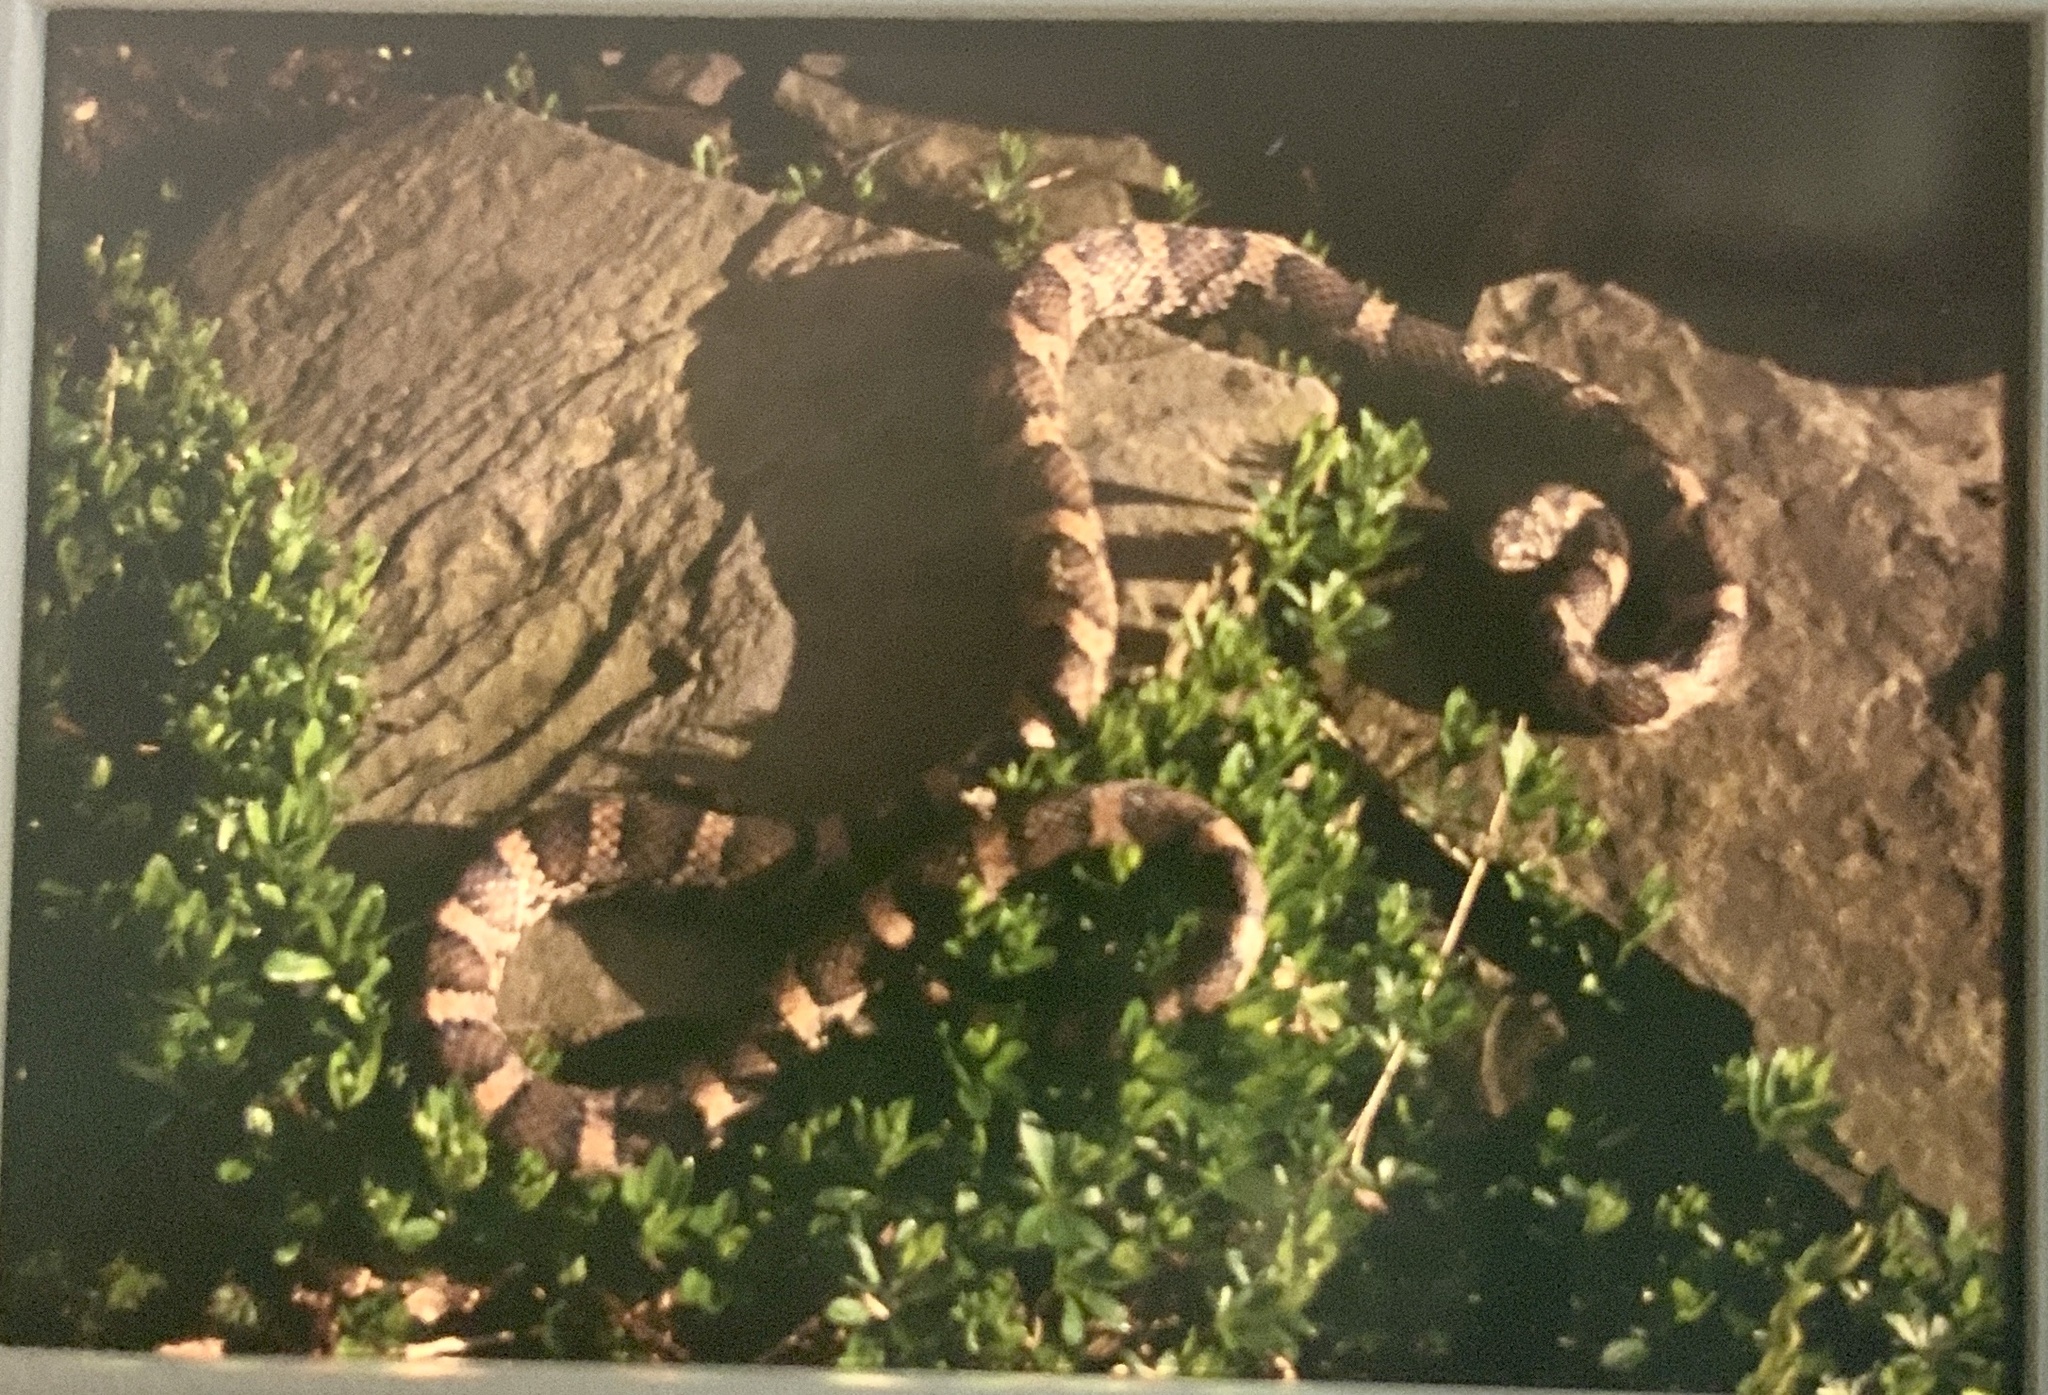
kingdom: Animalia
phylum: Chordata
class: Squamata
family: Colubridae
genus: Lampropeltis
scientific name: Lampropeltis triangulum
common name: Eastern milksnake
